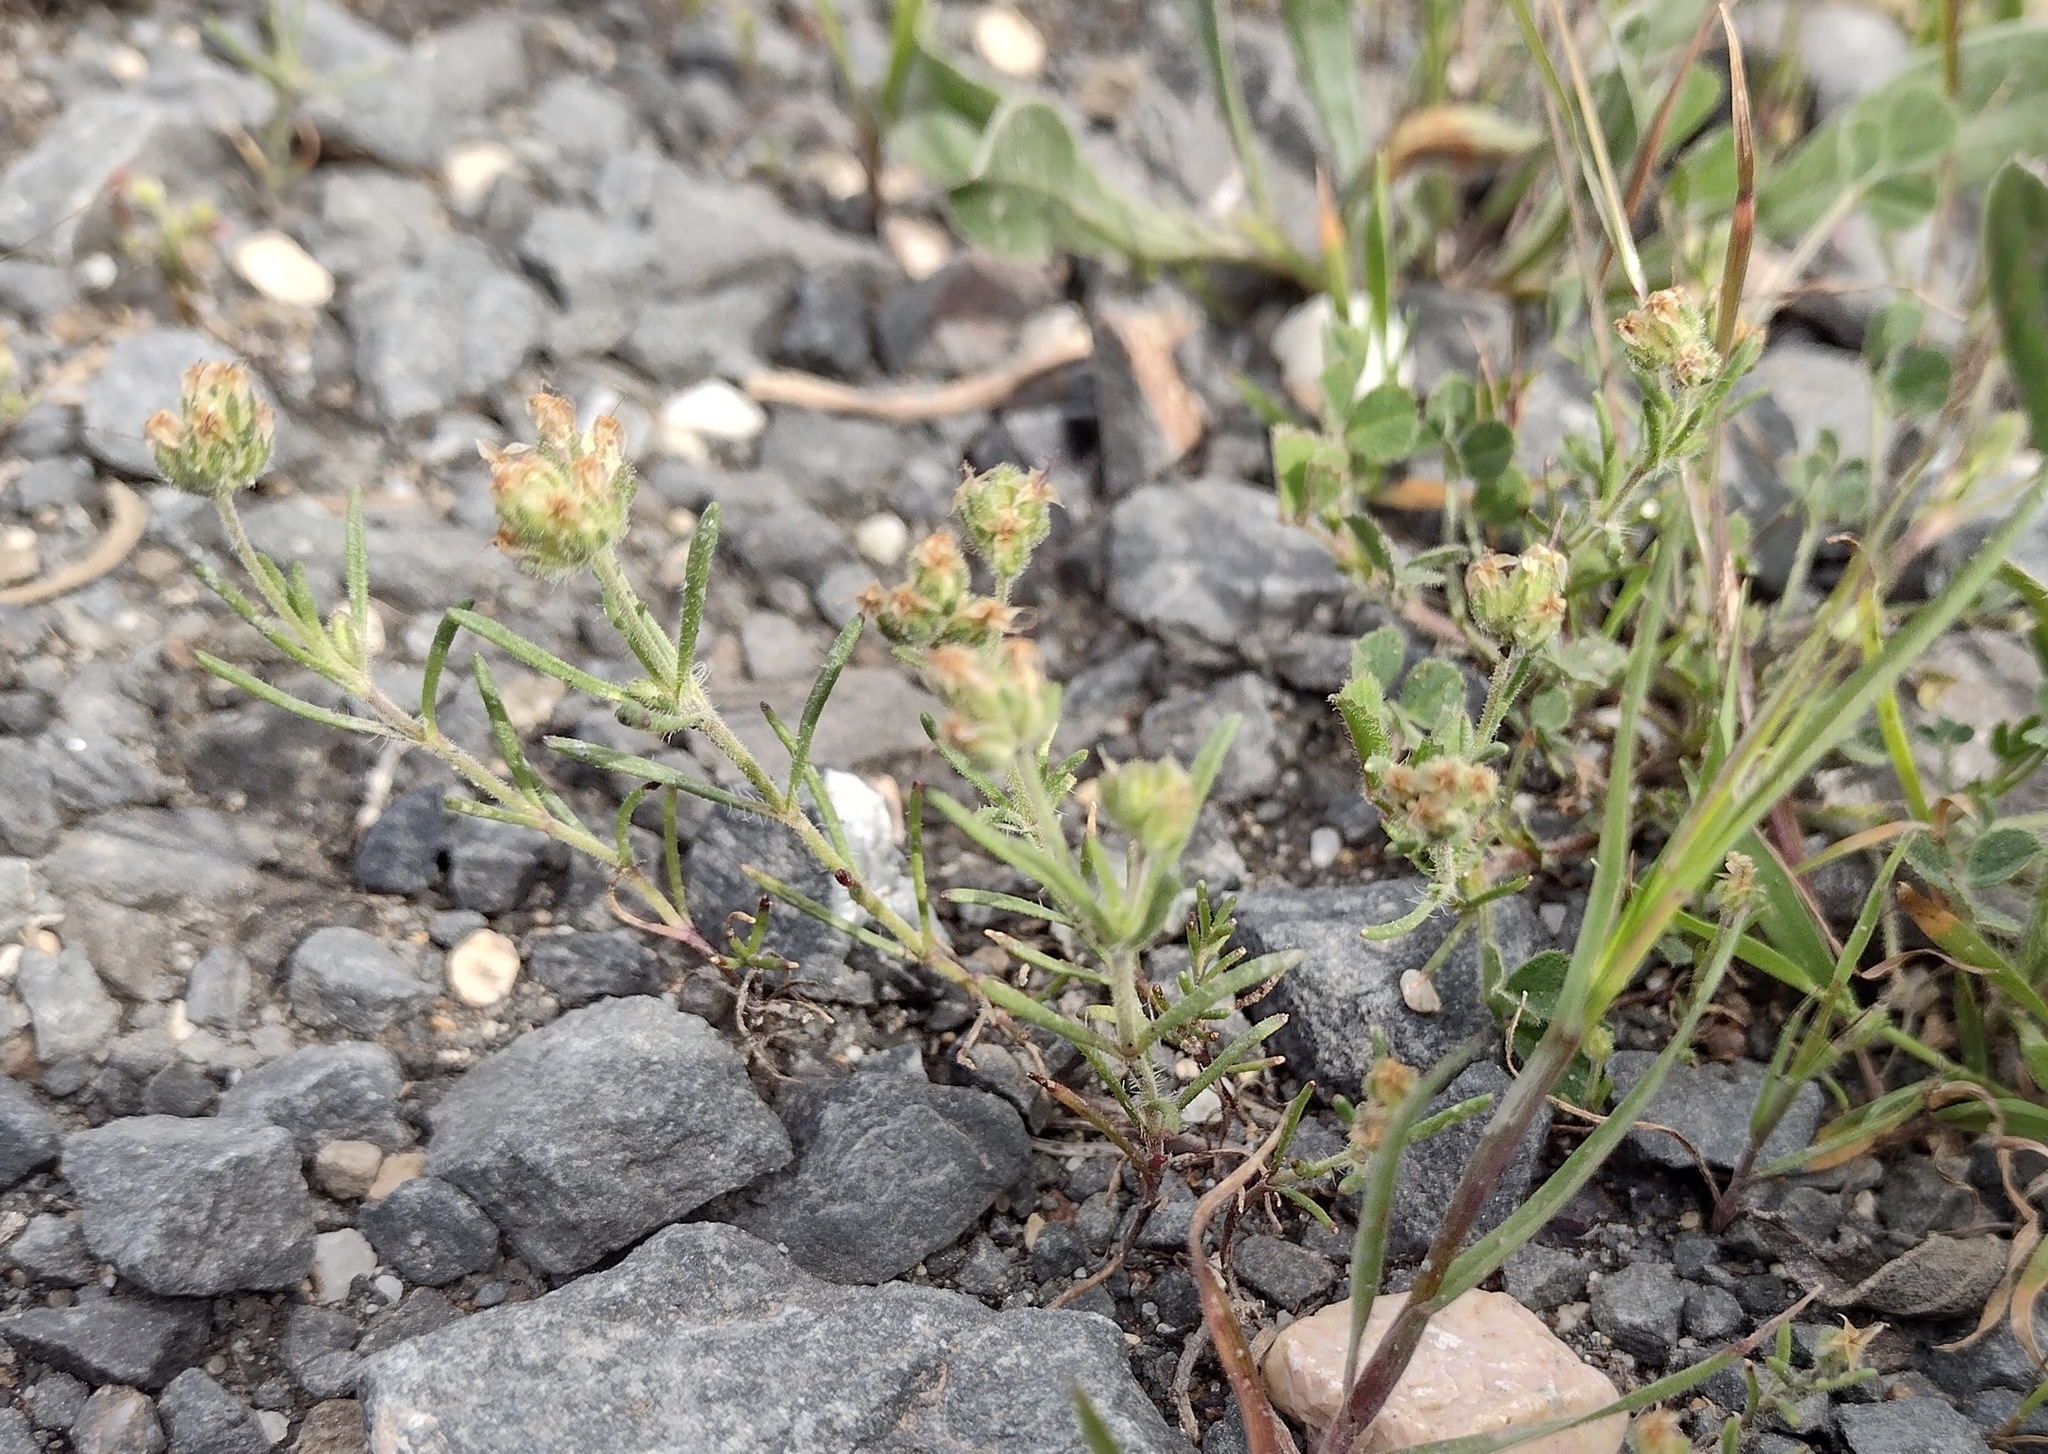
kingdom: Plantae
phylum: Tracheophyta
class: Magnoliopsida
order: Lamiales
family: Plantaginaceae
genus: Plantago
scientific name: Plantago afra
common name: Glandular plantain
